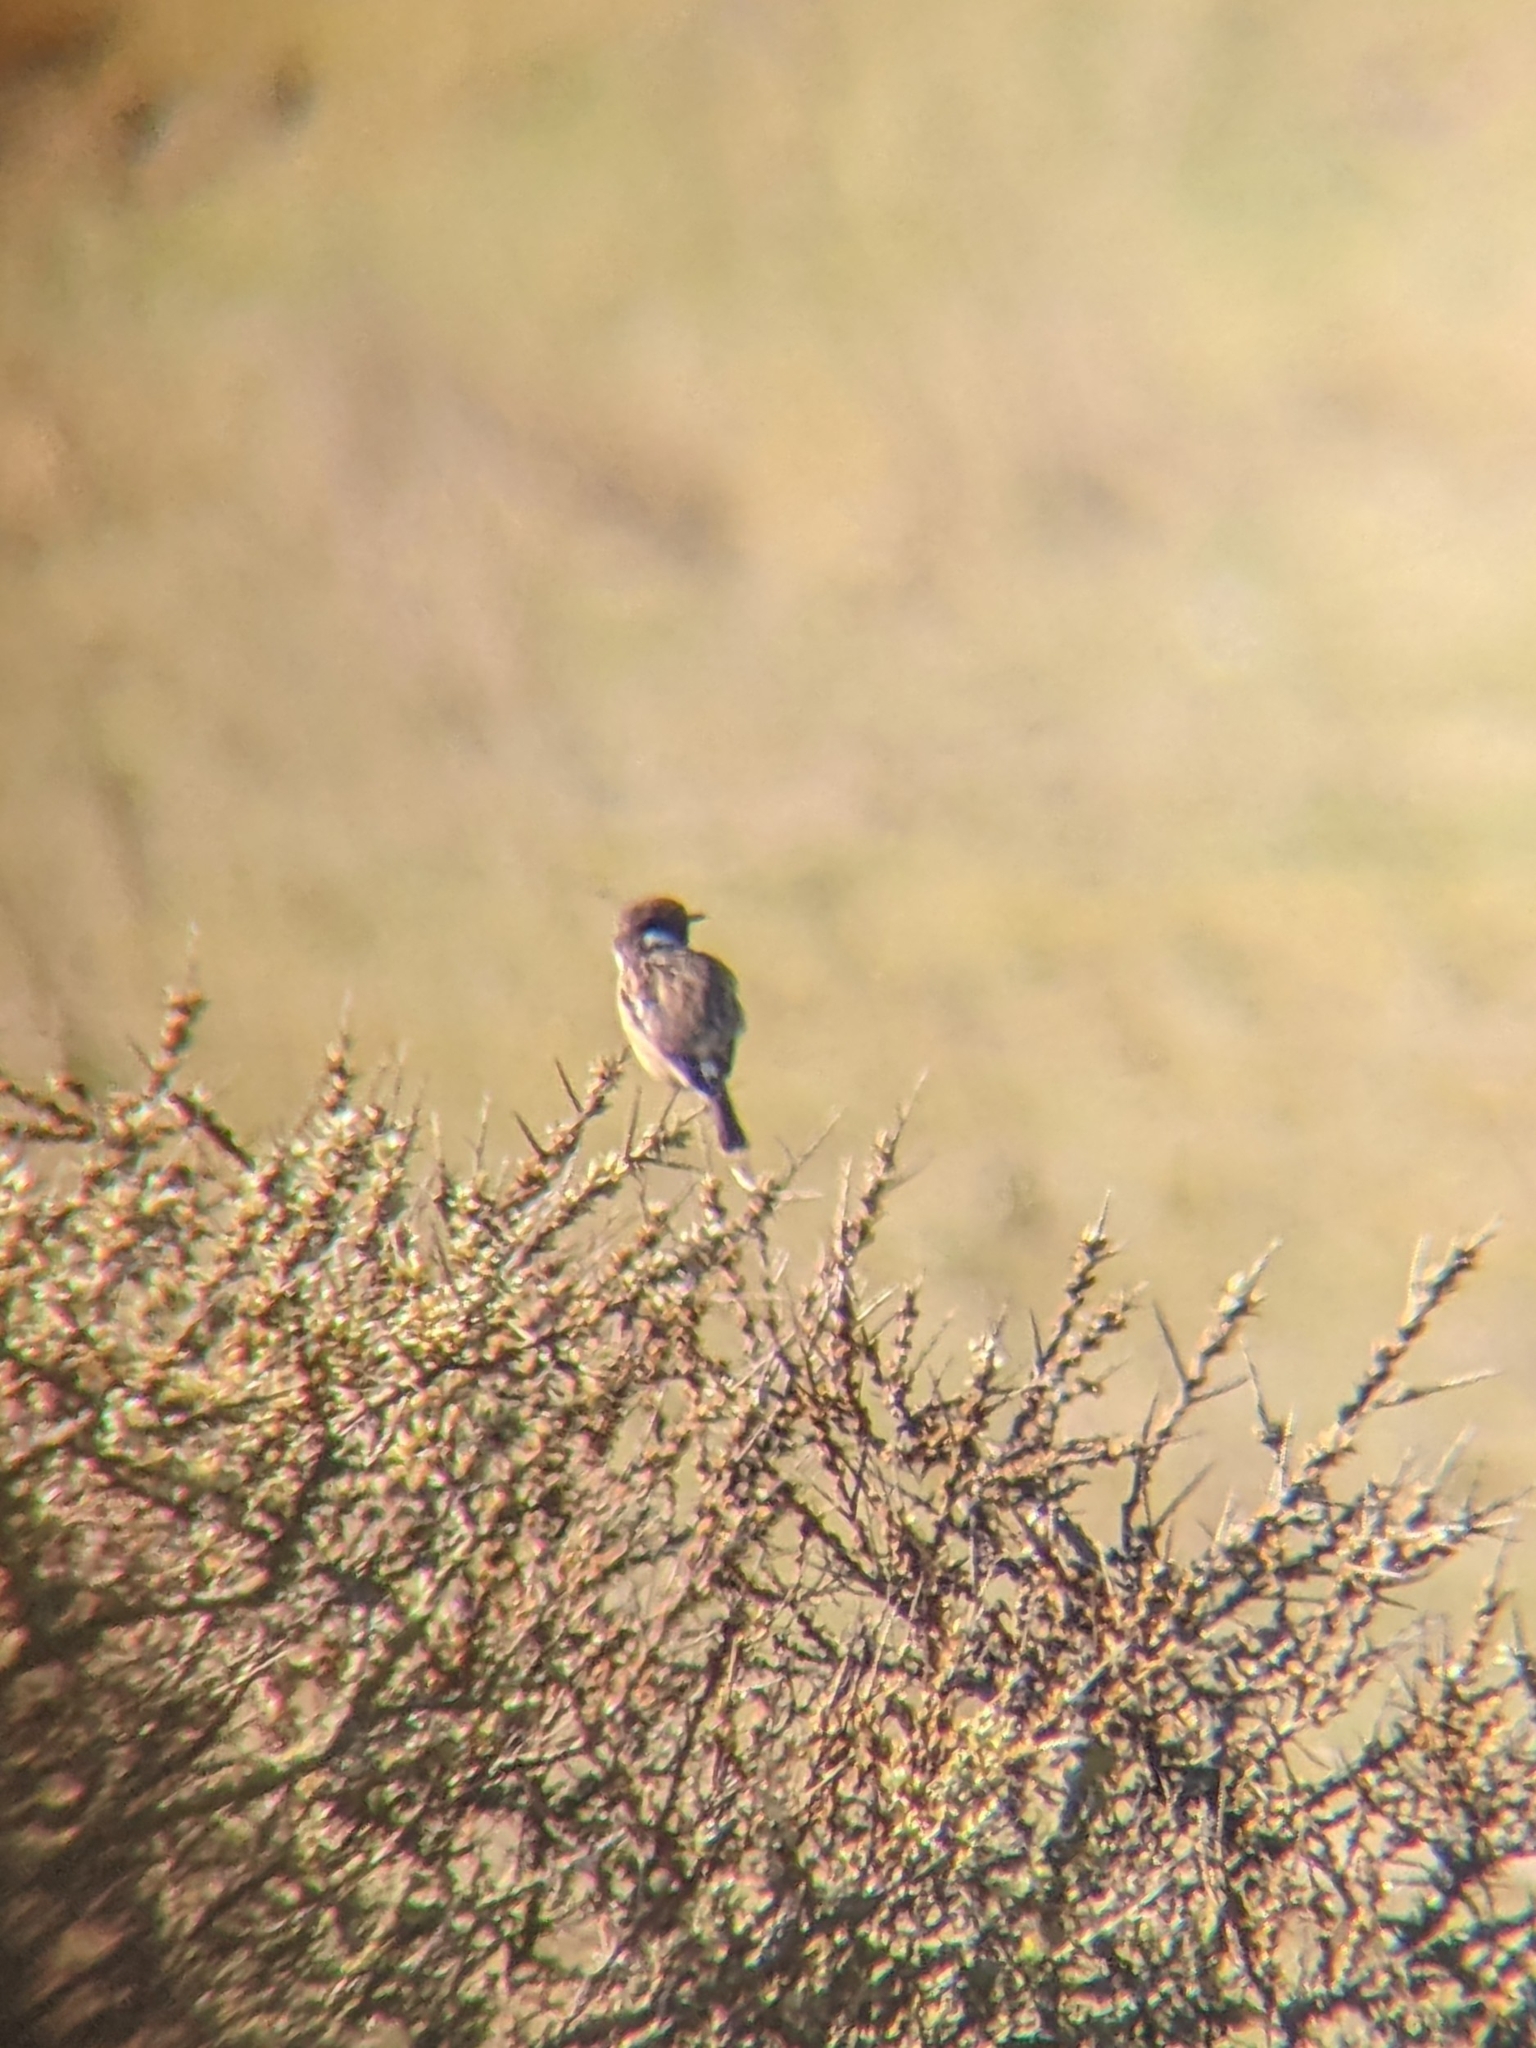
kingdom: Animalia
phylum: Chordata
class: Aves
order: Passeriformes
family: Muscicapidae
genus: Saxicola
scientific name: Saxicola rubicola
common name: European stonechat
